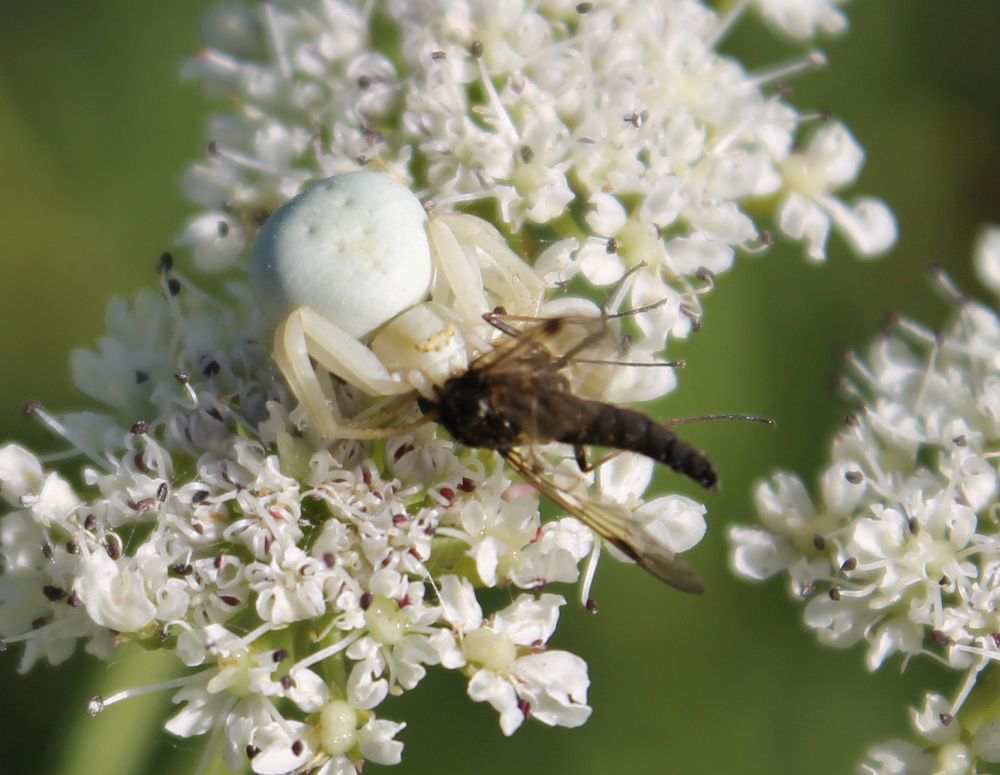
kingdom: Animalia
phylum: Arthropoda
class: Arachnida
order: Araneae
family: Thomisidae
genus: Misumena
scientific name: Misumena vatia
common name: Goldenrod crab spider
